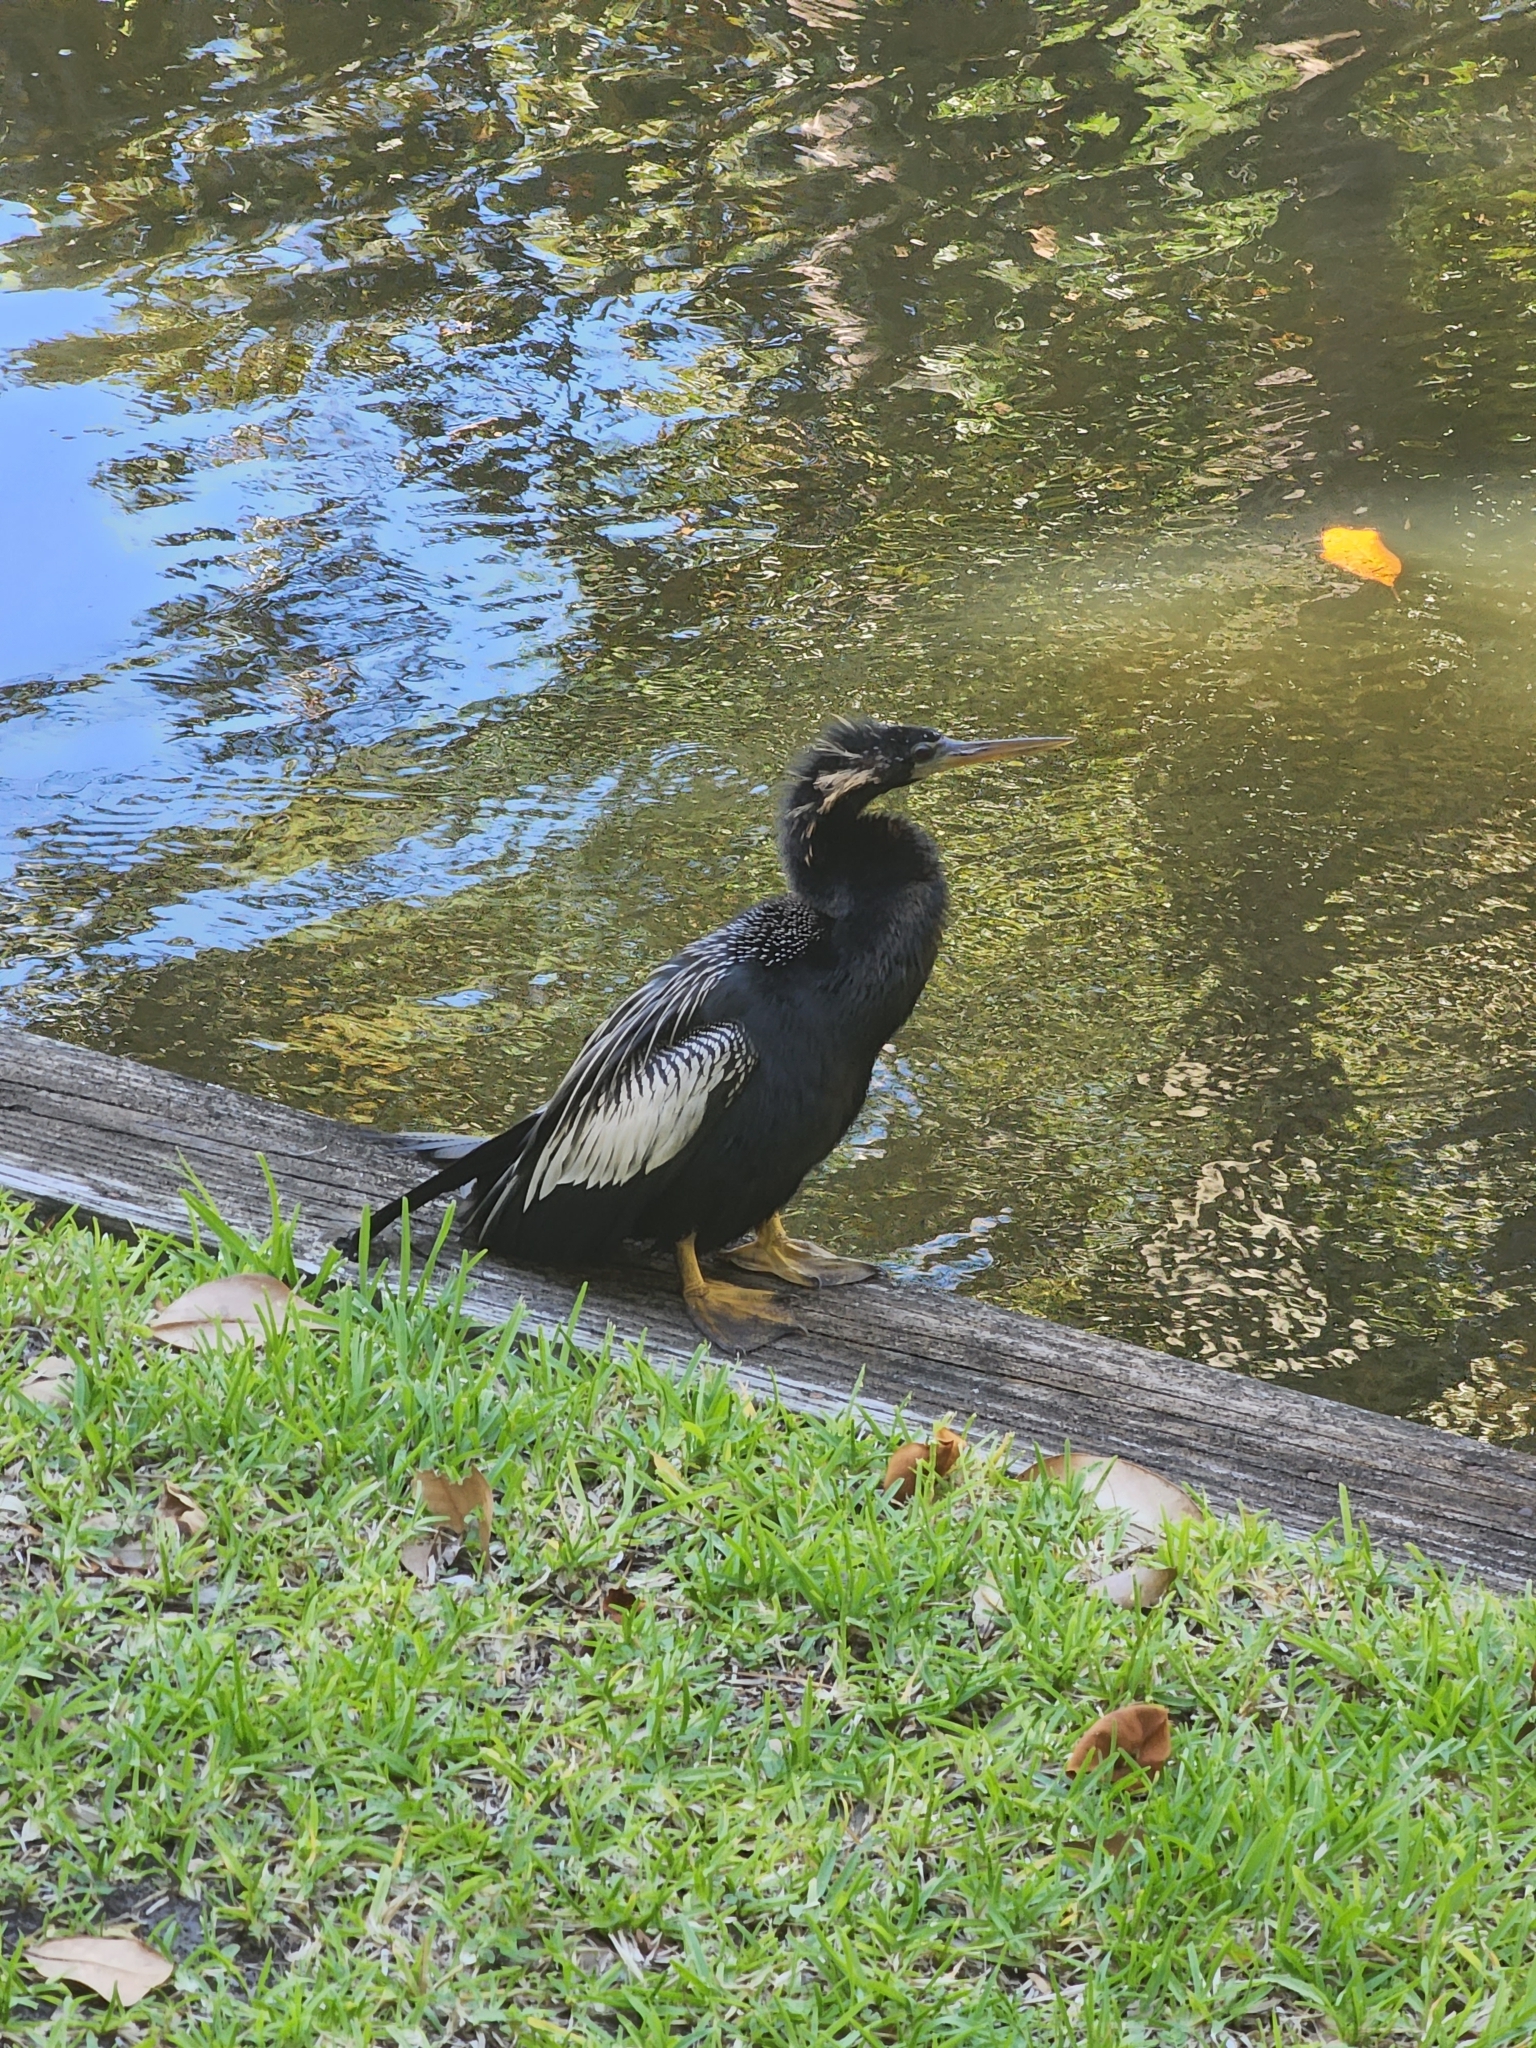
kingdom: Animalia
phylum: Chordata
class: Aves
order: Suliformes
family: Anhingidae
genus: Anhinga
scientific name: Anhinga anhinga
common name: Anhinga
